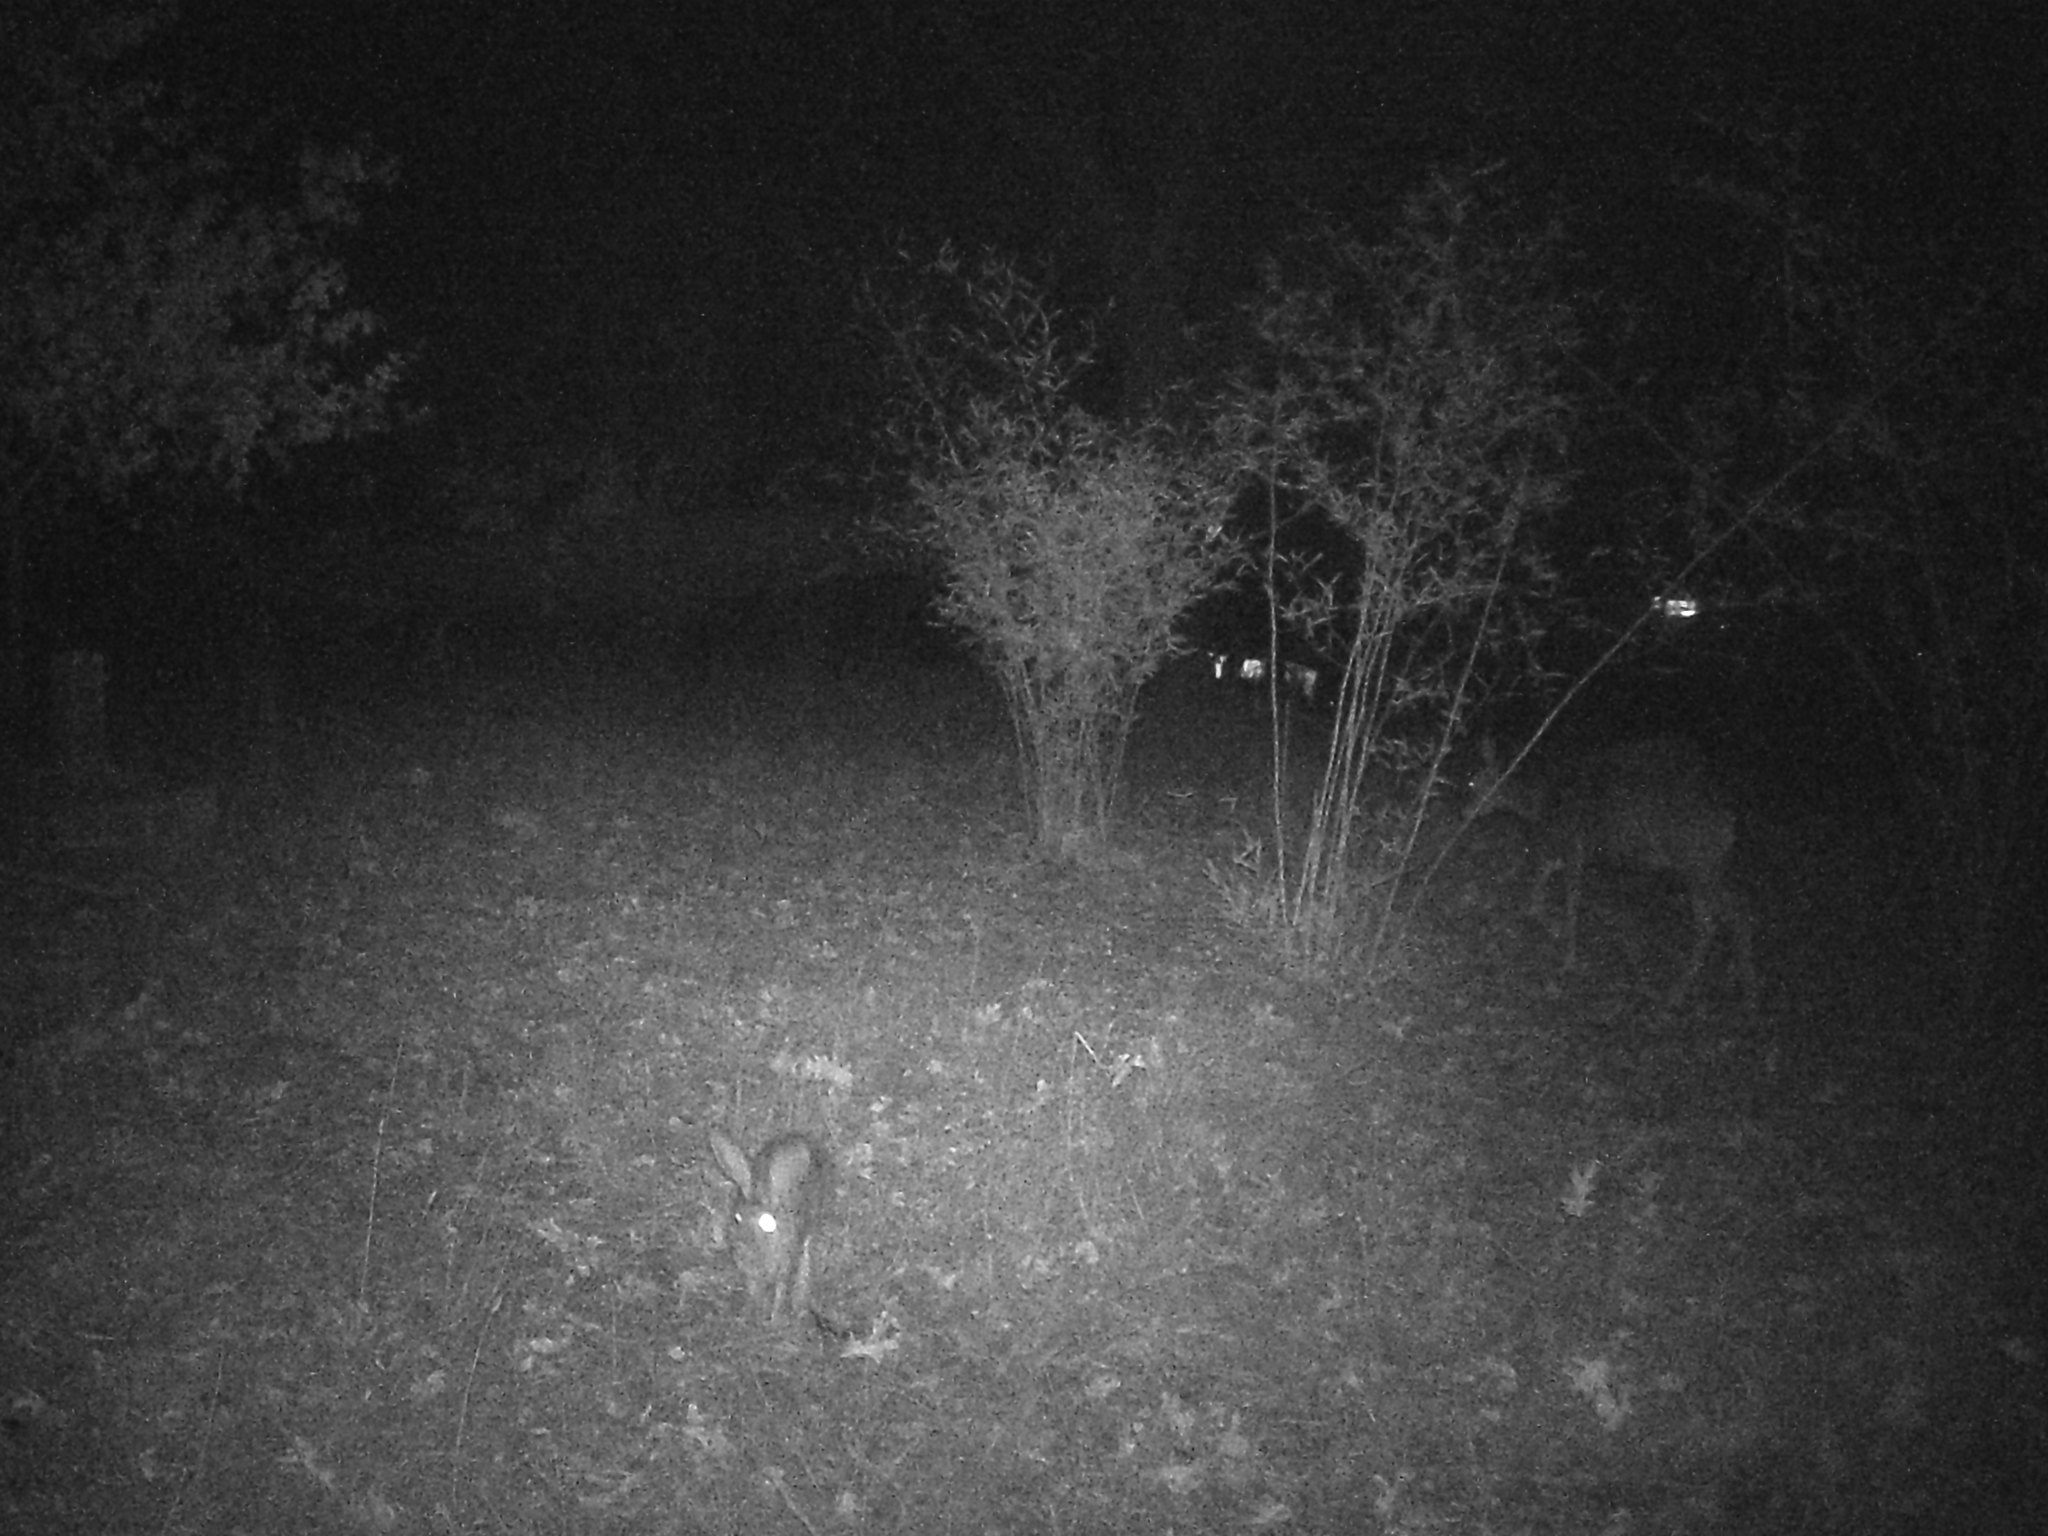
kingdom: Animalia
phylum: Chordata
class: Mammalia
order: Lagomorpha
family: Leporidae
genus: Lepus
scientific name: Lepus californicus
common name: Black-tailed jackrabbit
